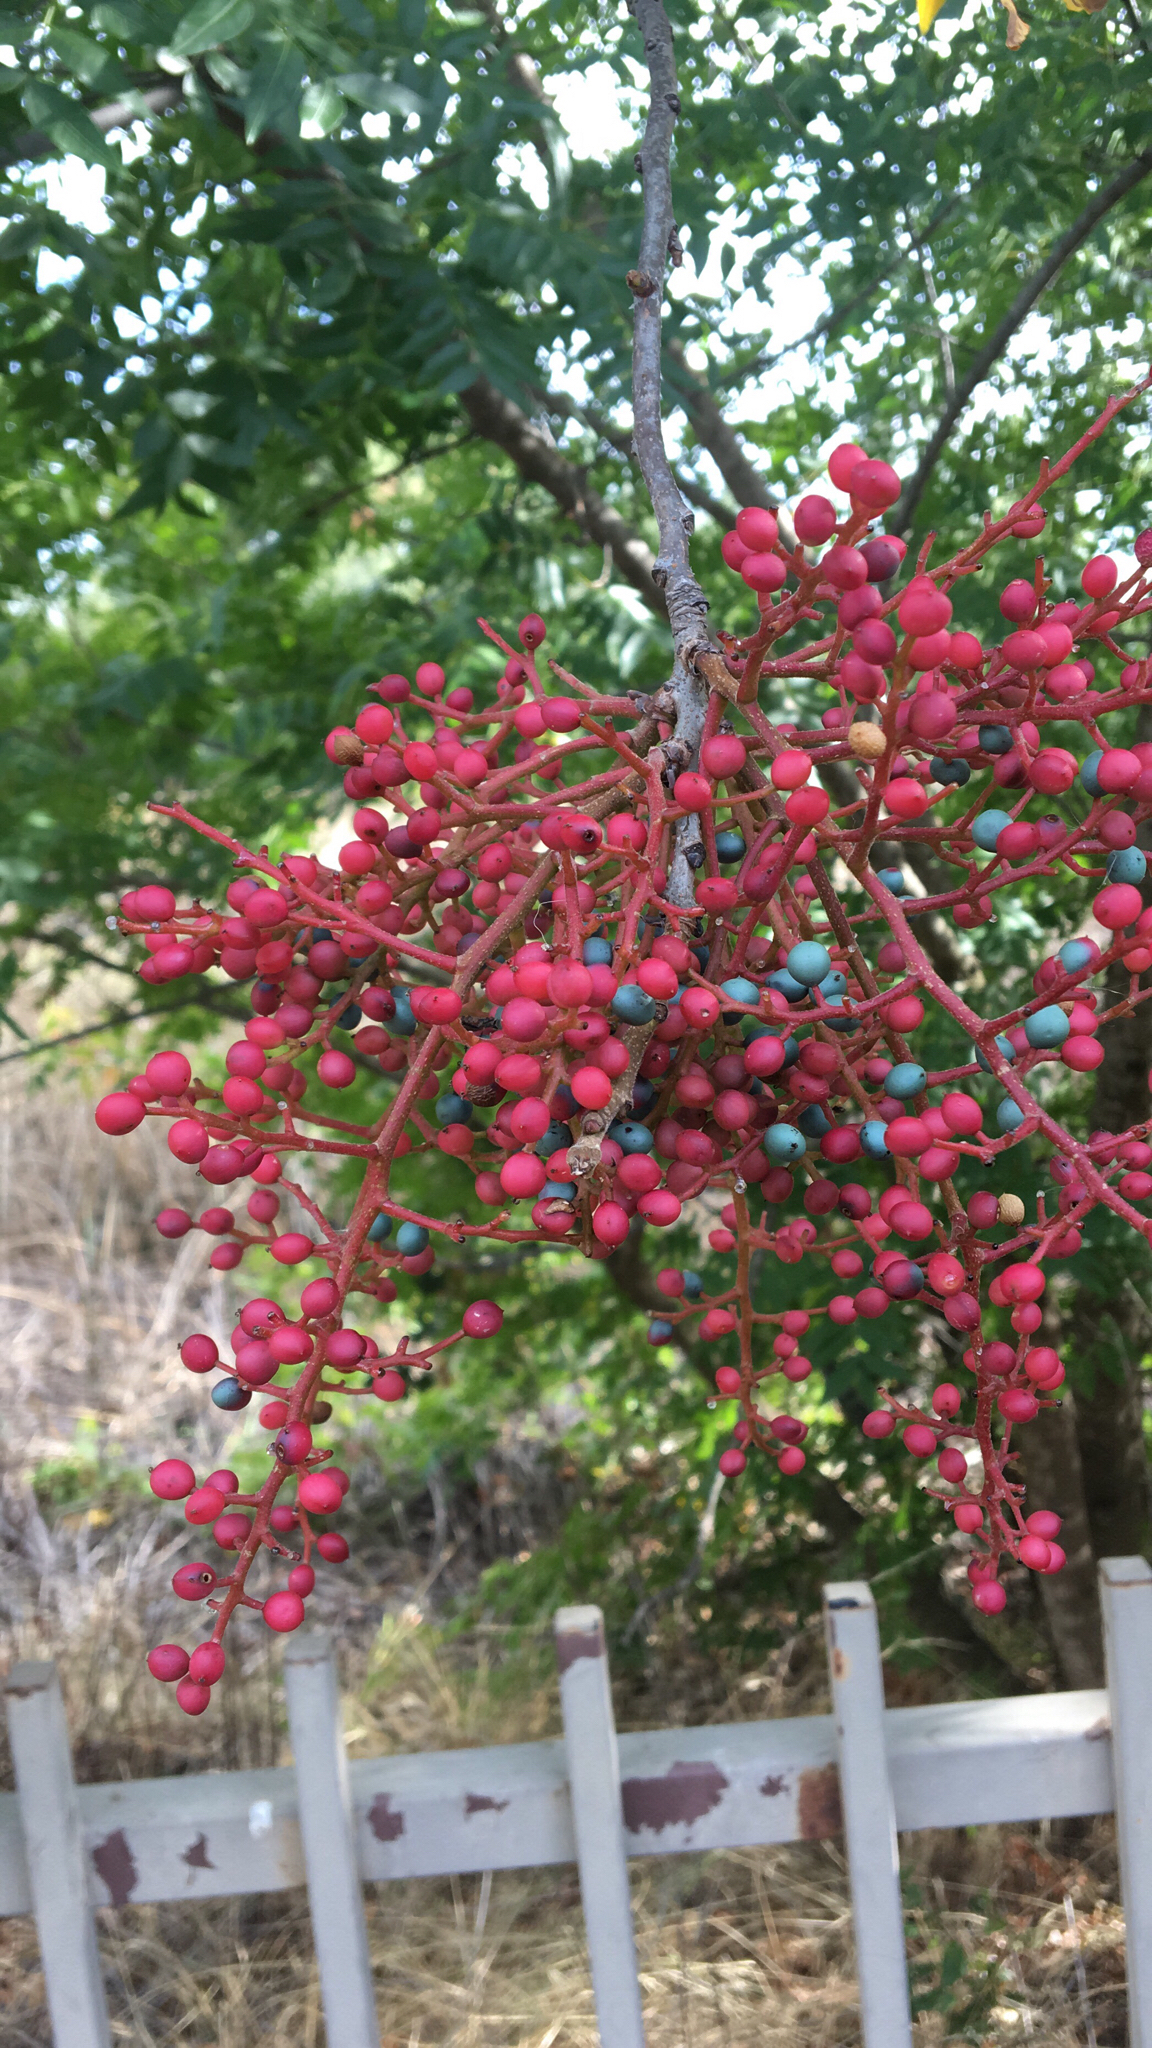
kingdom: Plantae
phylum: Tracheophyta
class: Magnoliopsida
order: Sapindales
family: Anacardiaceae
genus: Pistacia
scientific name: Pistacia chinensis
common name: Chinese pistache
